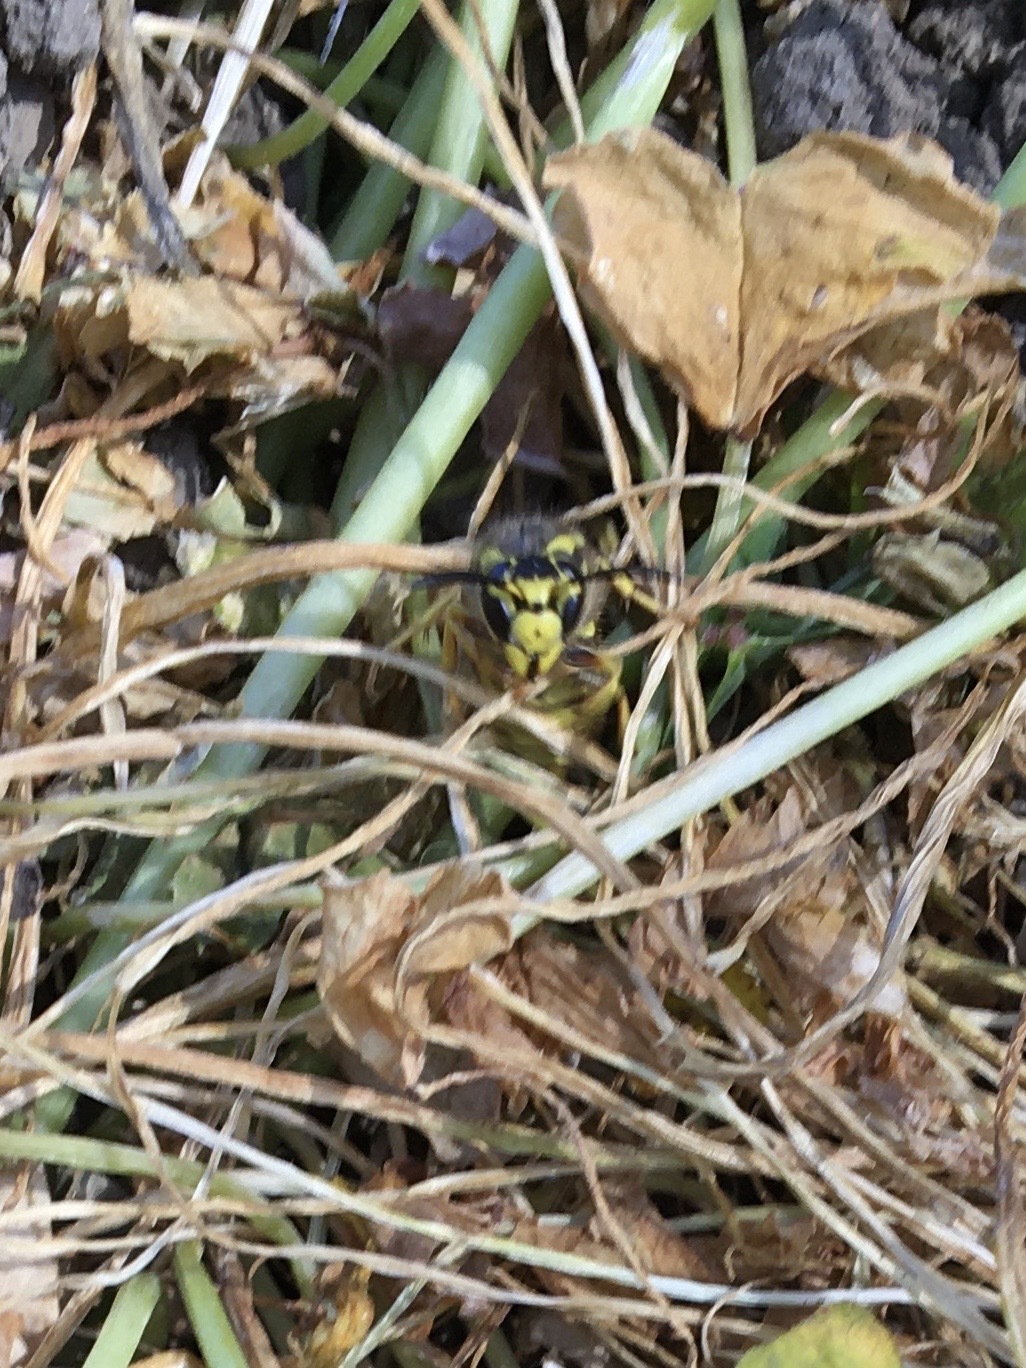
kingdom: Animalia
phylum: Arthropoda
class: Insecta
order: Hymenoptera
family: Vespidae
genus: Vespula
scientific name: Vespula pensylvanica
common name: Western yellowjacket
